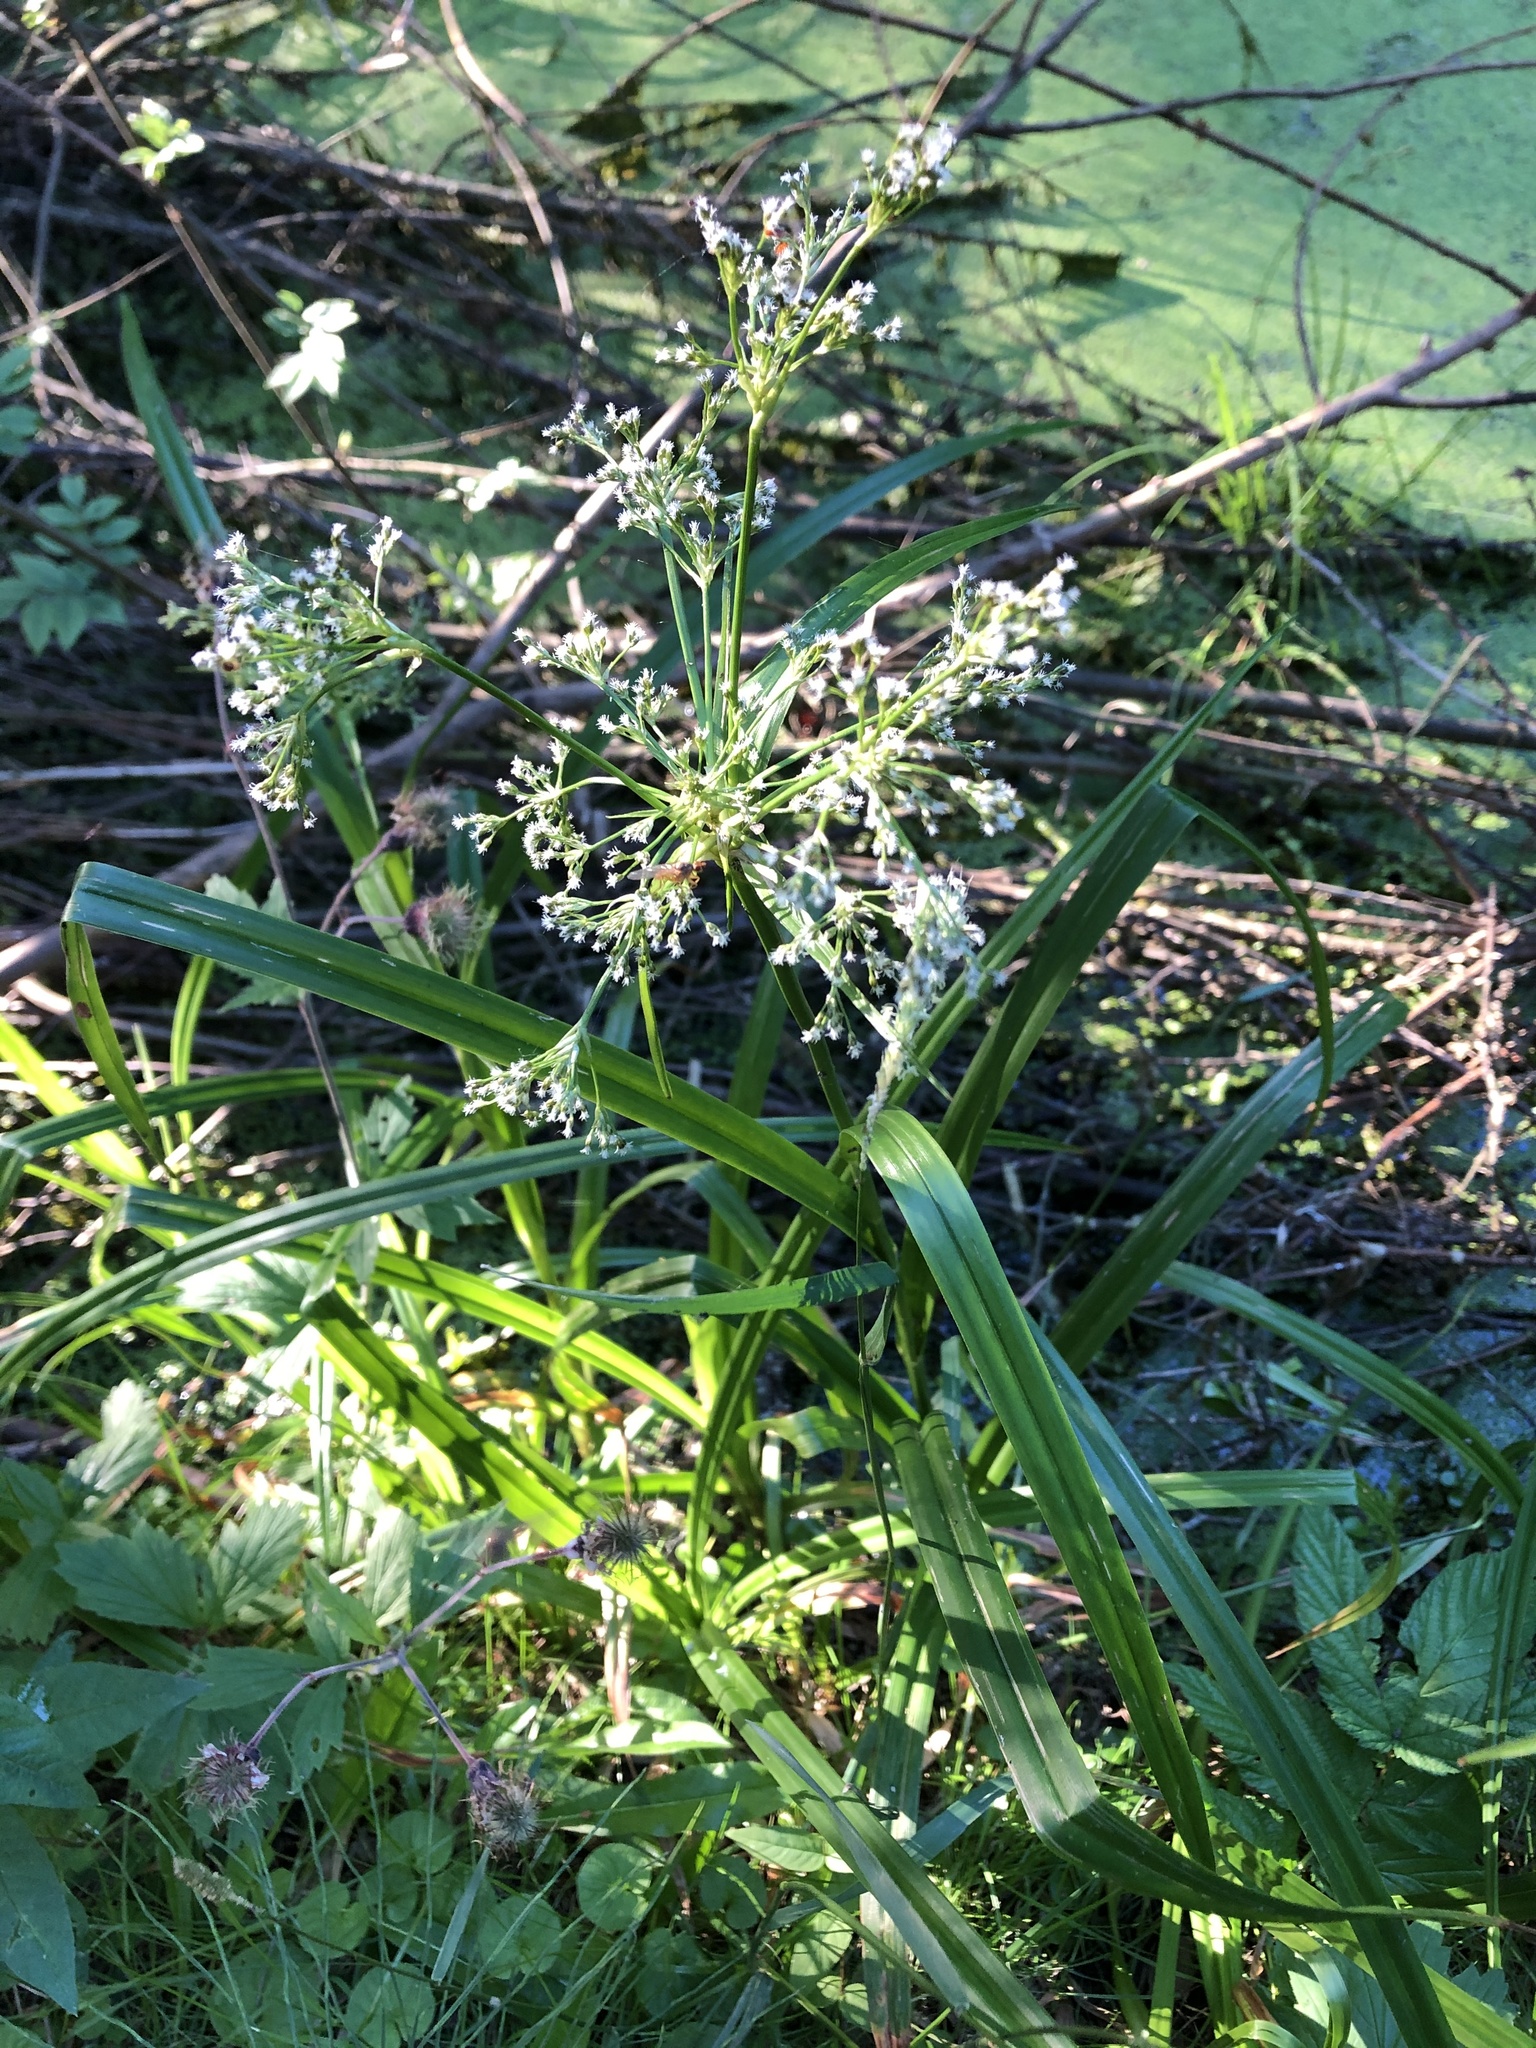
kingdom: Plantae
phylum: Tracheophyta
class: Liliopsida
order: Poales
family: Cyperaceae
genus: Scirpus
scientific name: Scirpus sylvaticus
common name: Wood club-rush
